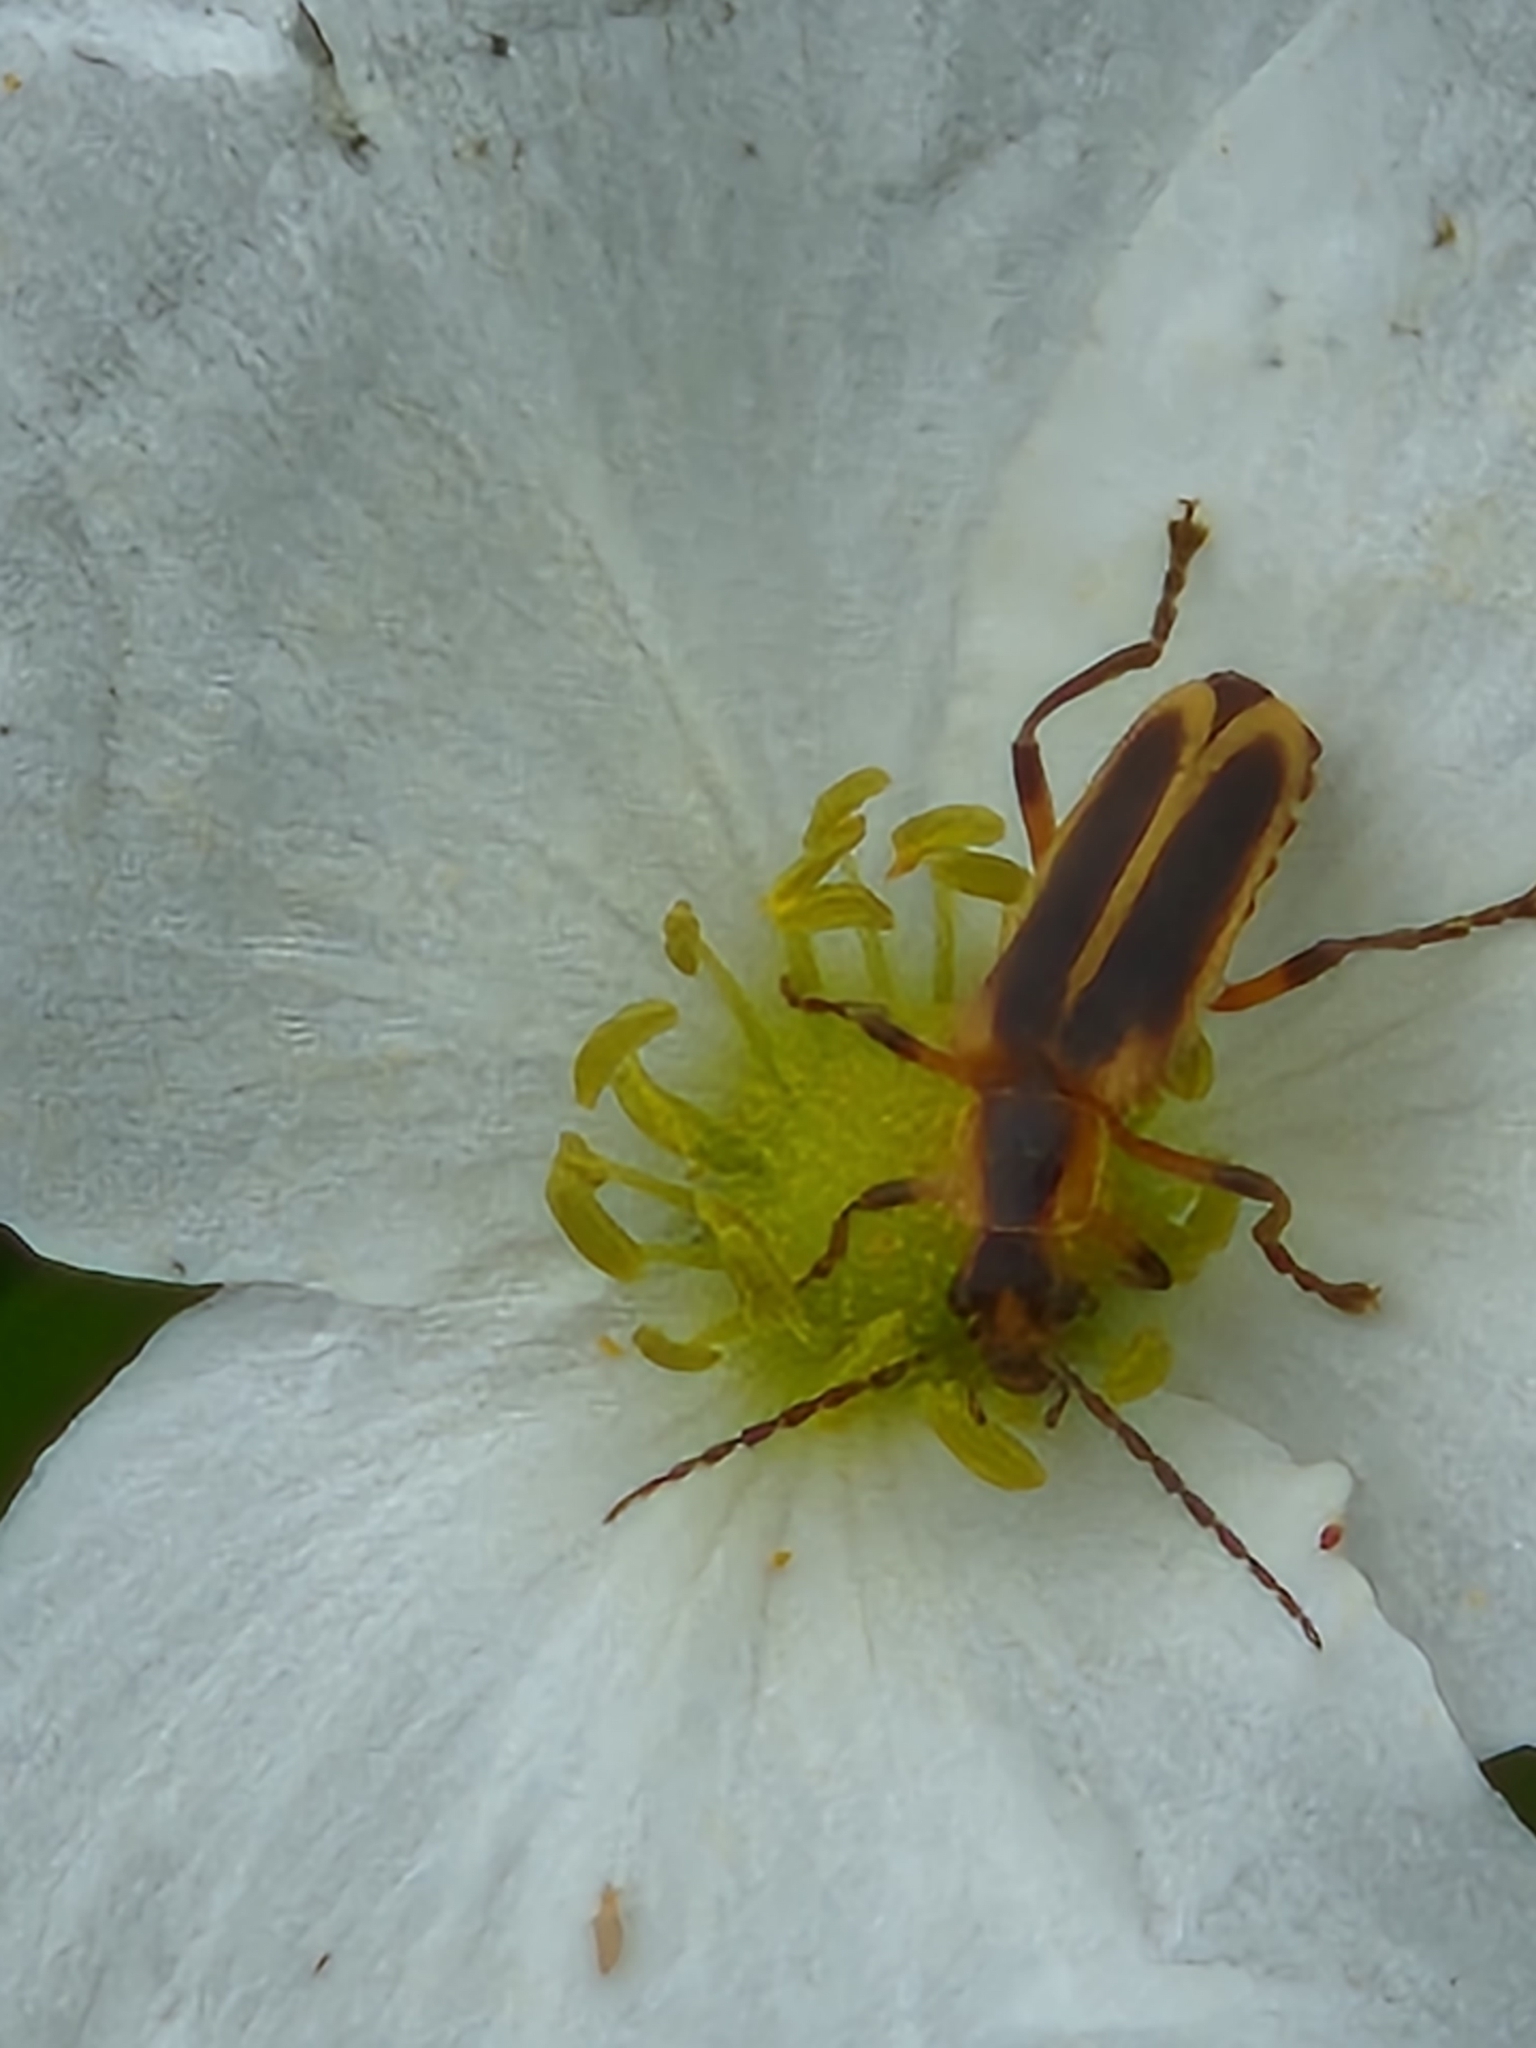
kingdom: Animalia
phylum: Arthropoda
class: Insecta
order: Coleoptera
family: Cantharidae
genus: Chauliognathus
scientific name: Chauliognathus marginatus
